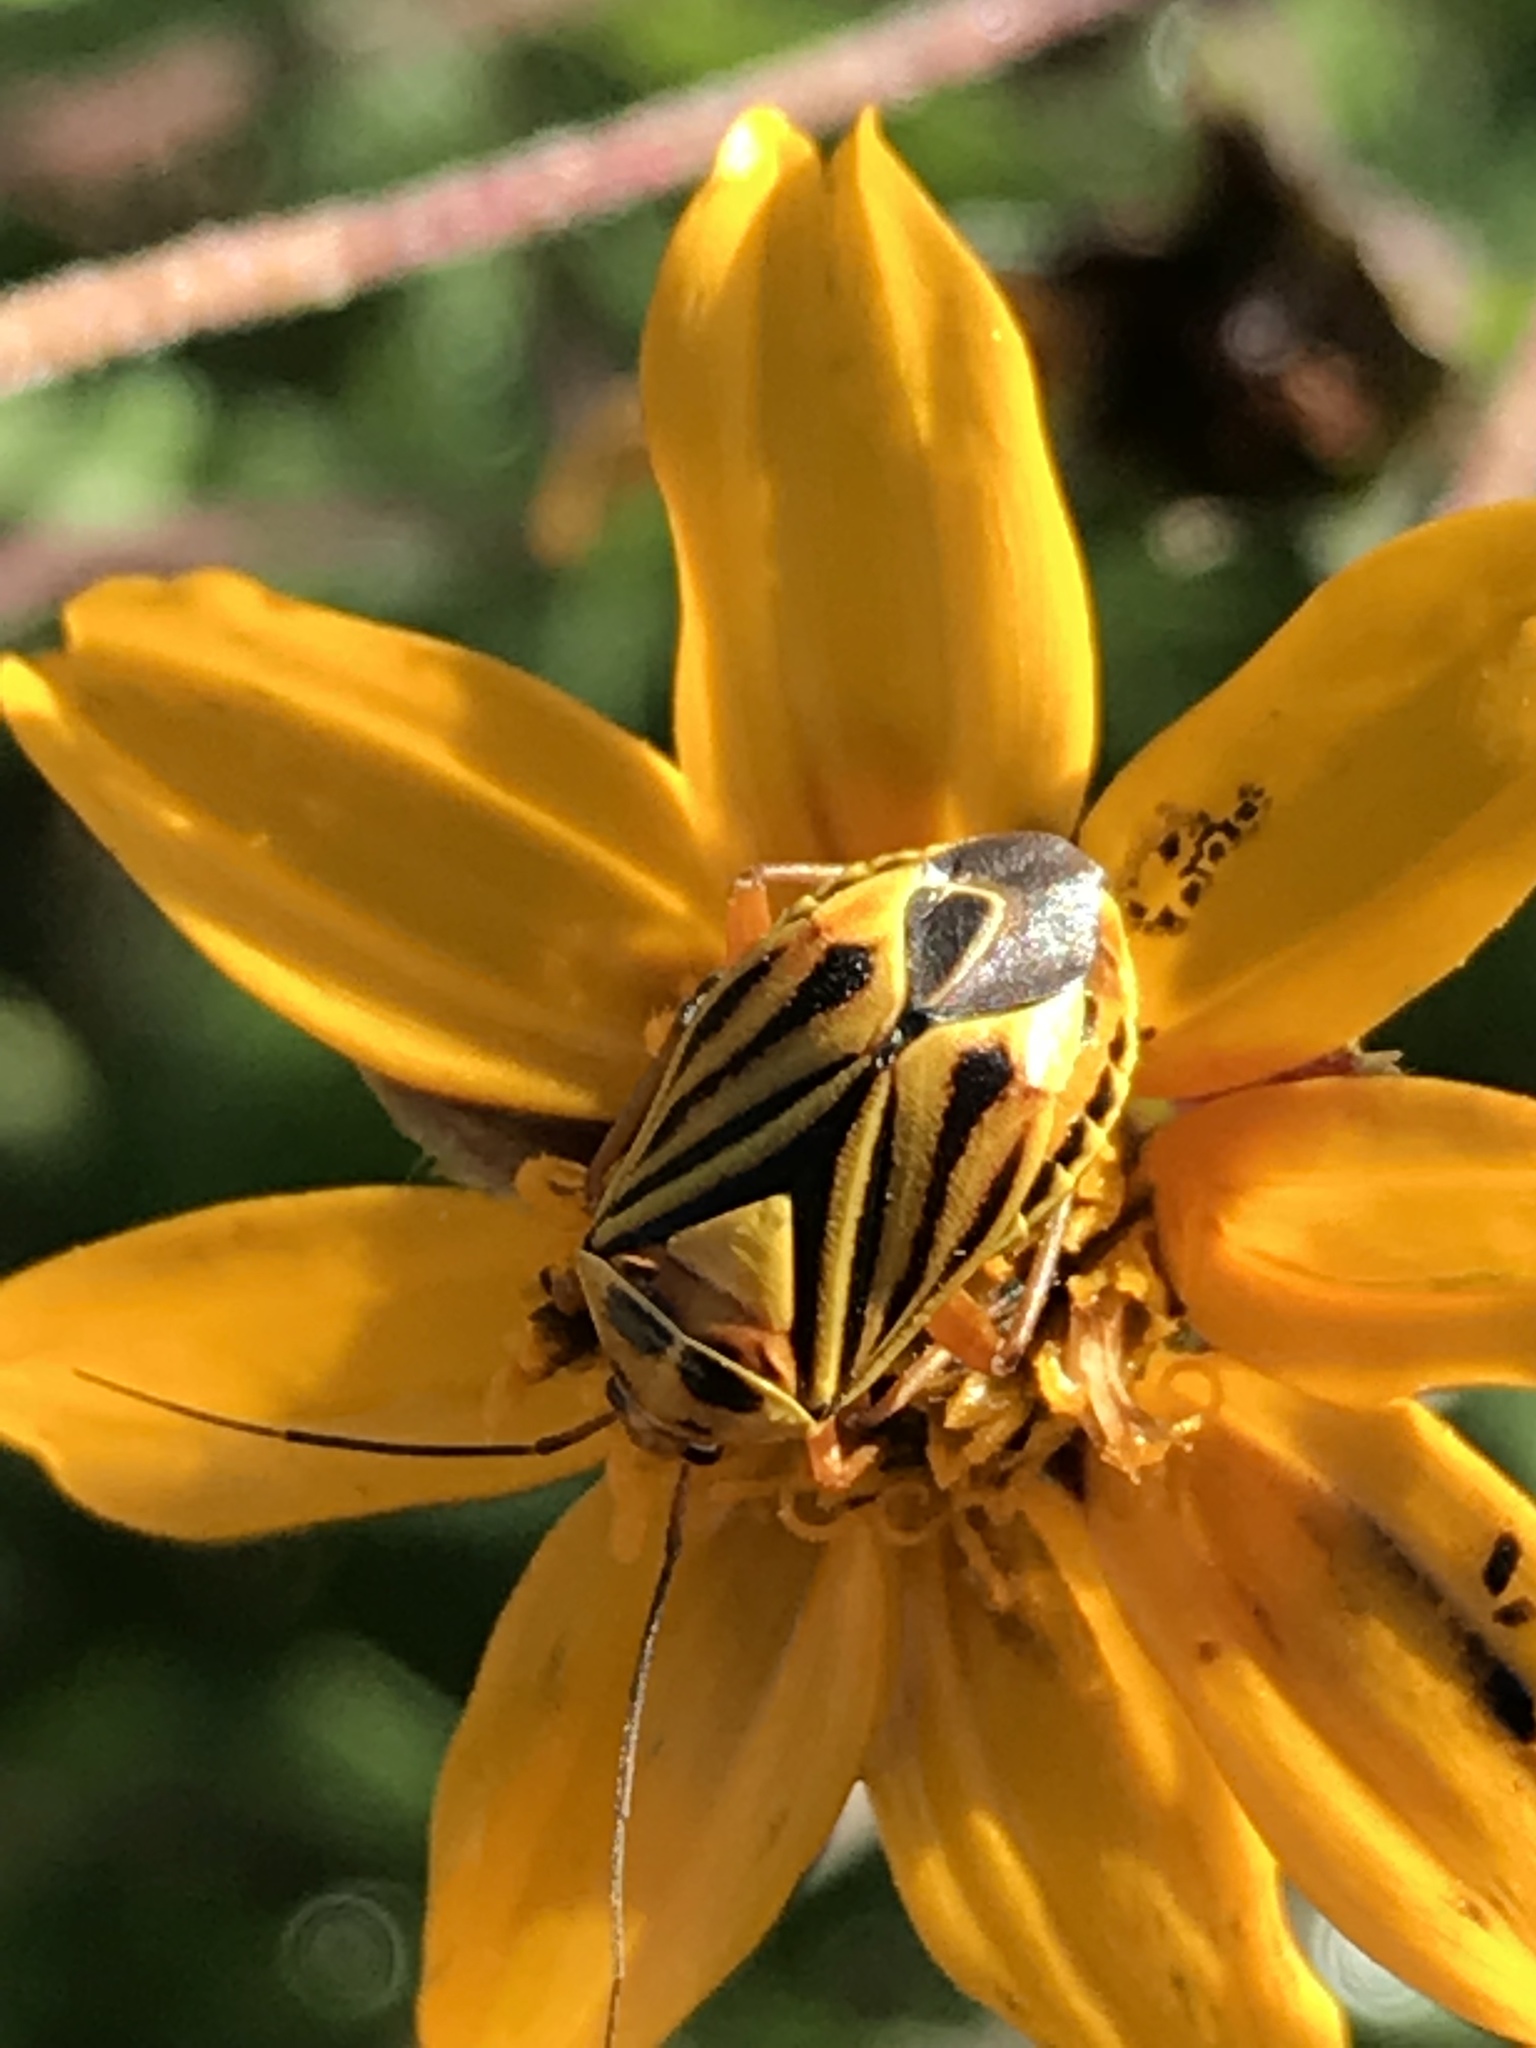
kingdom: Animalia
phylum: Arthropoda
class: Insecta
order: Hemiptera
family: Miridae
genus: Calocoris
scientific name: Calocoris barberi
